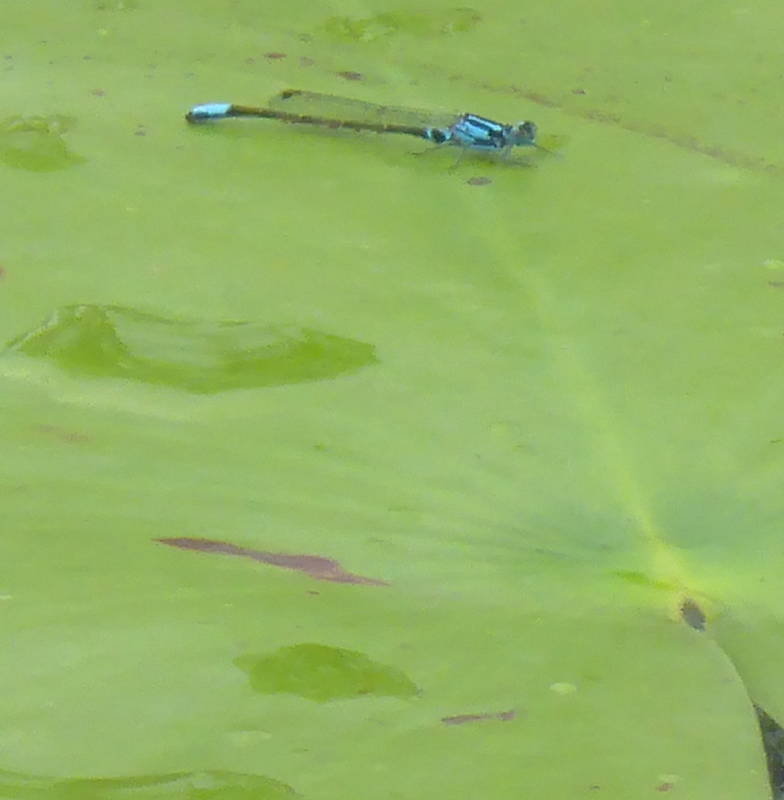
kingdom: Animalia
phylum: Arthropoda
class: Insecta
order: Odonata
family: Coenagrionidae
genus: Ischnura
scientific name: Ischnura kellicotti
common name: Lilypad forktail
